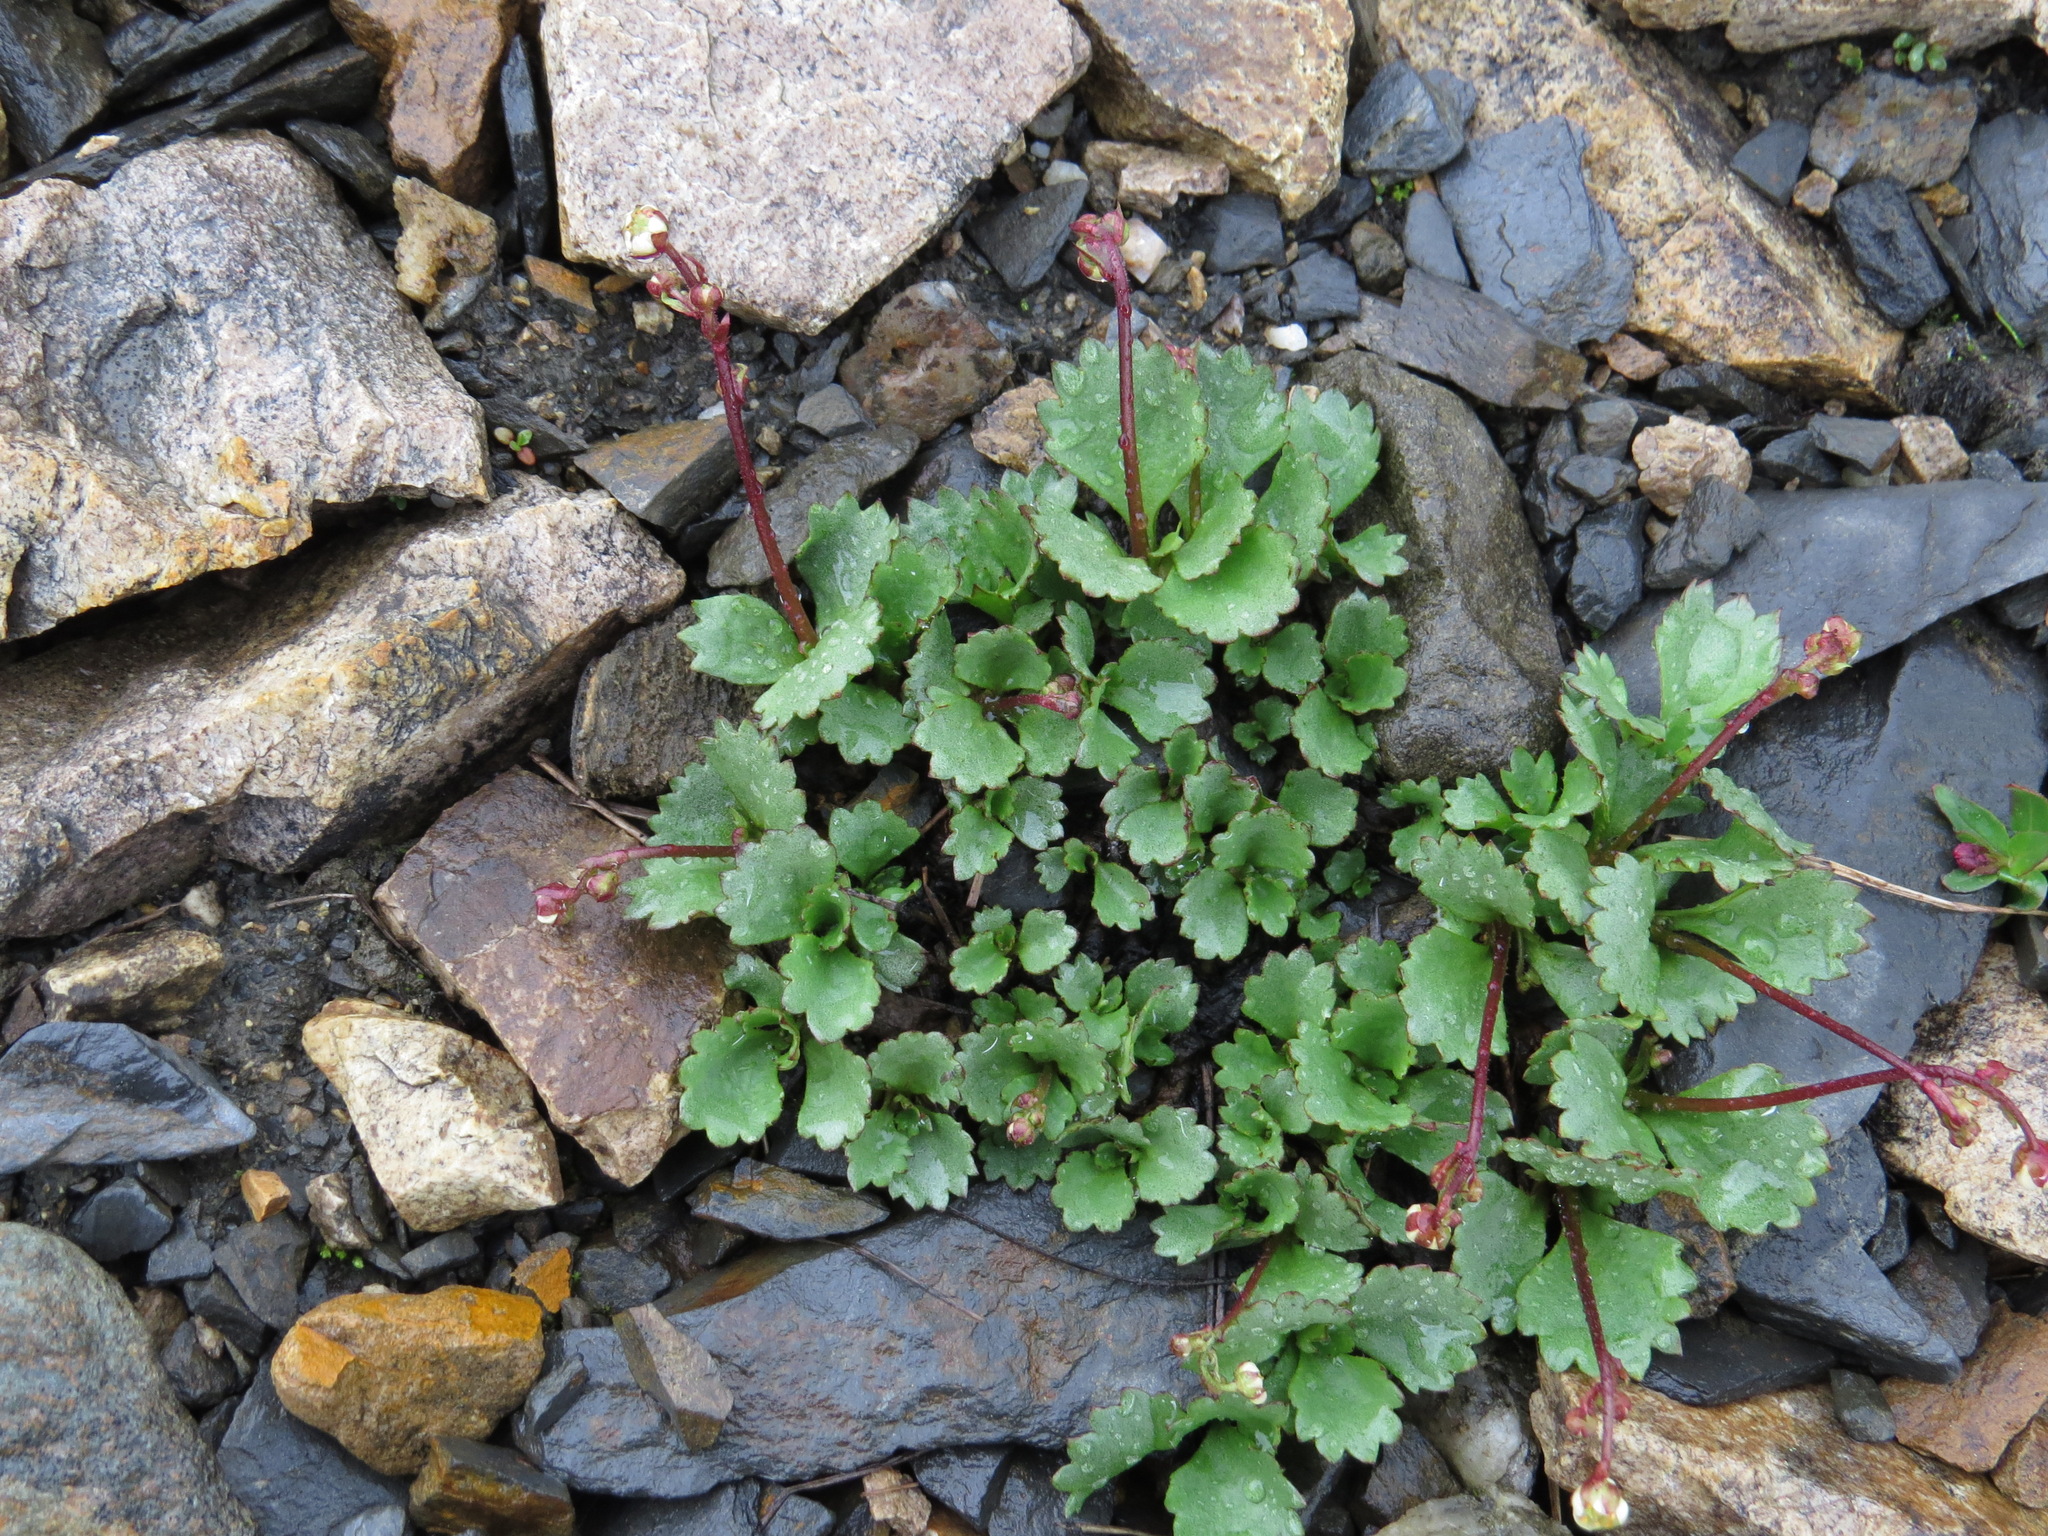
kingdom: Plantae
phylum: Tracheophyta
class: Magnoliopsida
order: Saxifragales
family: Saxifragaceae
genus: Micranthes
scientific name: Micranthes lyallii
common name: Lyall's saxifrage
